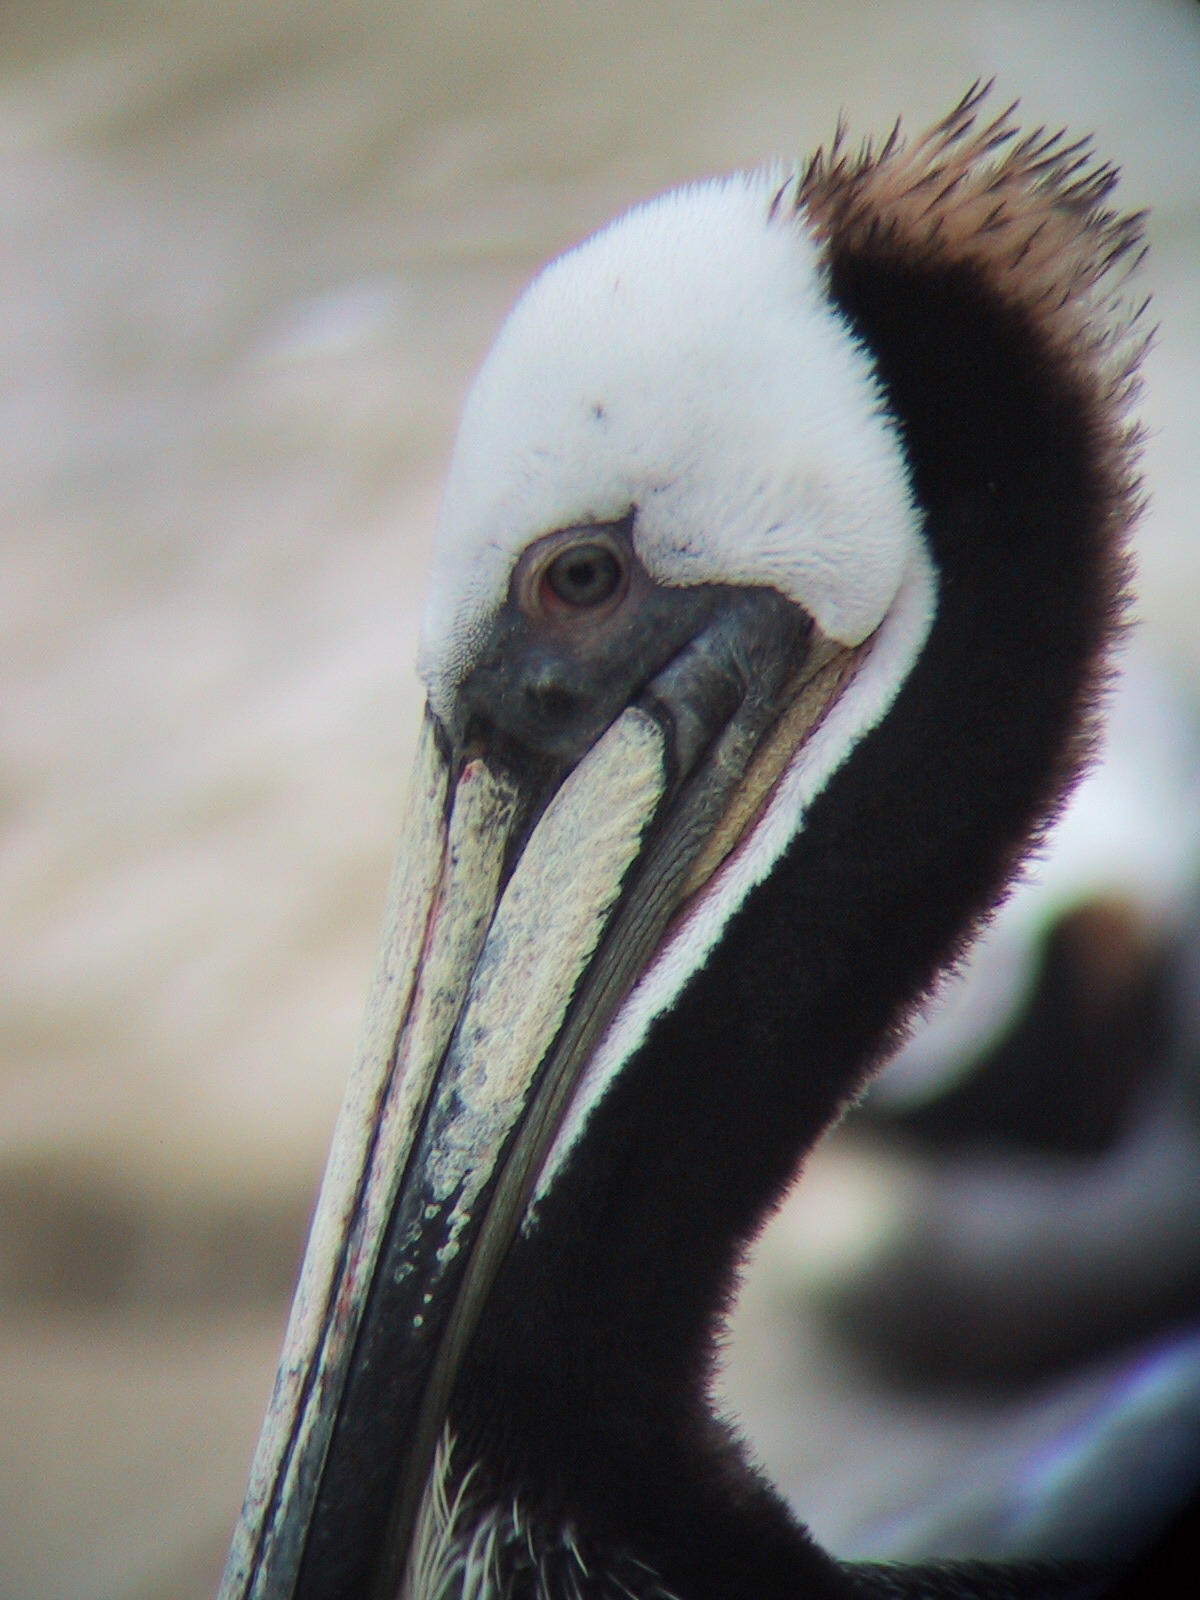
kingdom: Animalia
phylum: Chordata
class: Aves
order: Pelecaniformes
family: Pelecanidae
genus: Pelecanus
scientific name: Pelecanus occidentalis
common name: Brown pelican
